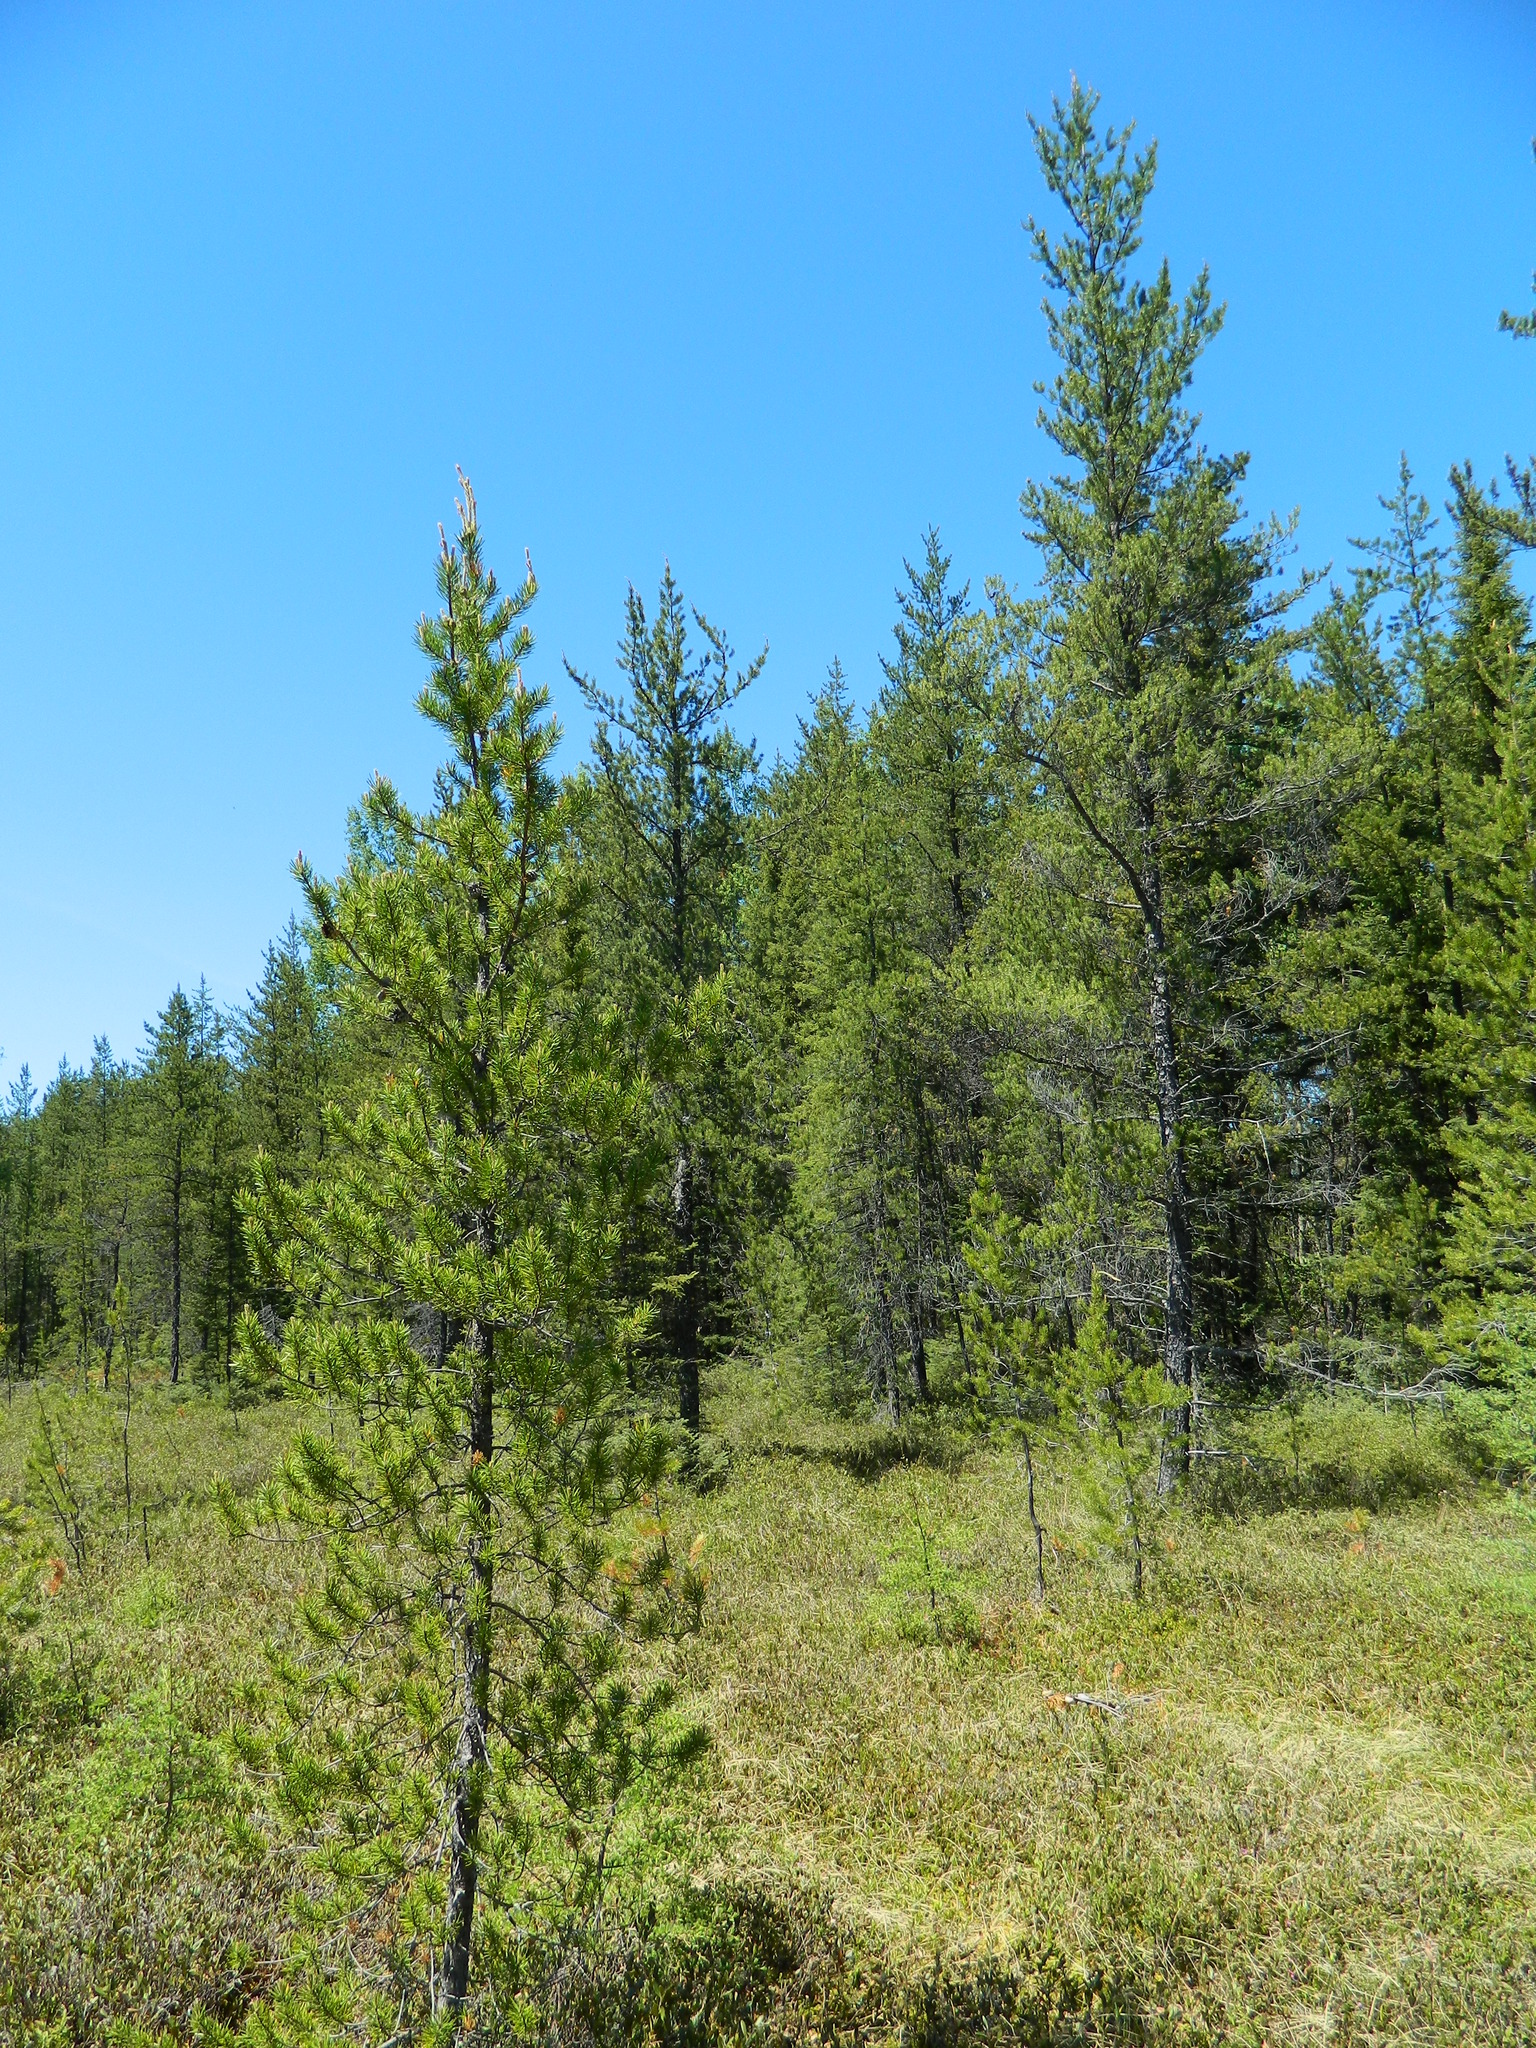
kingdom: Plantae
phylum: Tracheophyta
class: Pinopsida
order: Pinales
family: Pinaceae
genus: Pinus
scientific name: Pinus banksiana
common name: Jack pine
